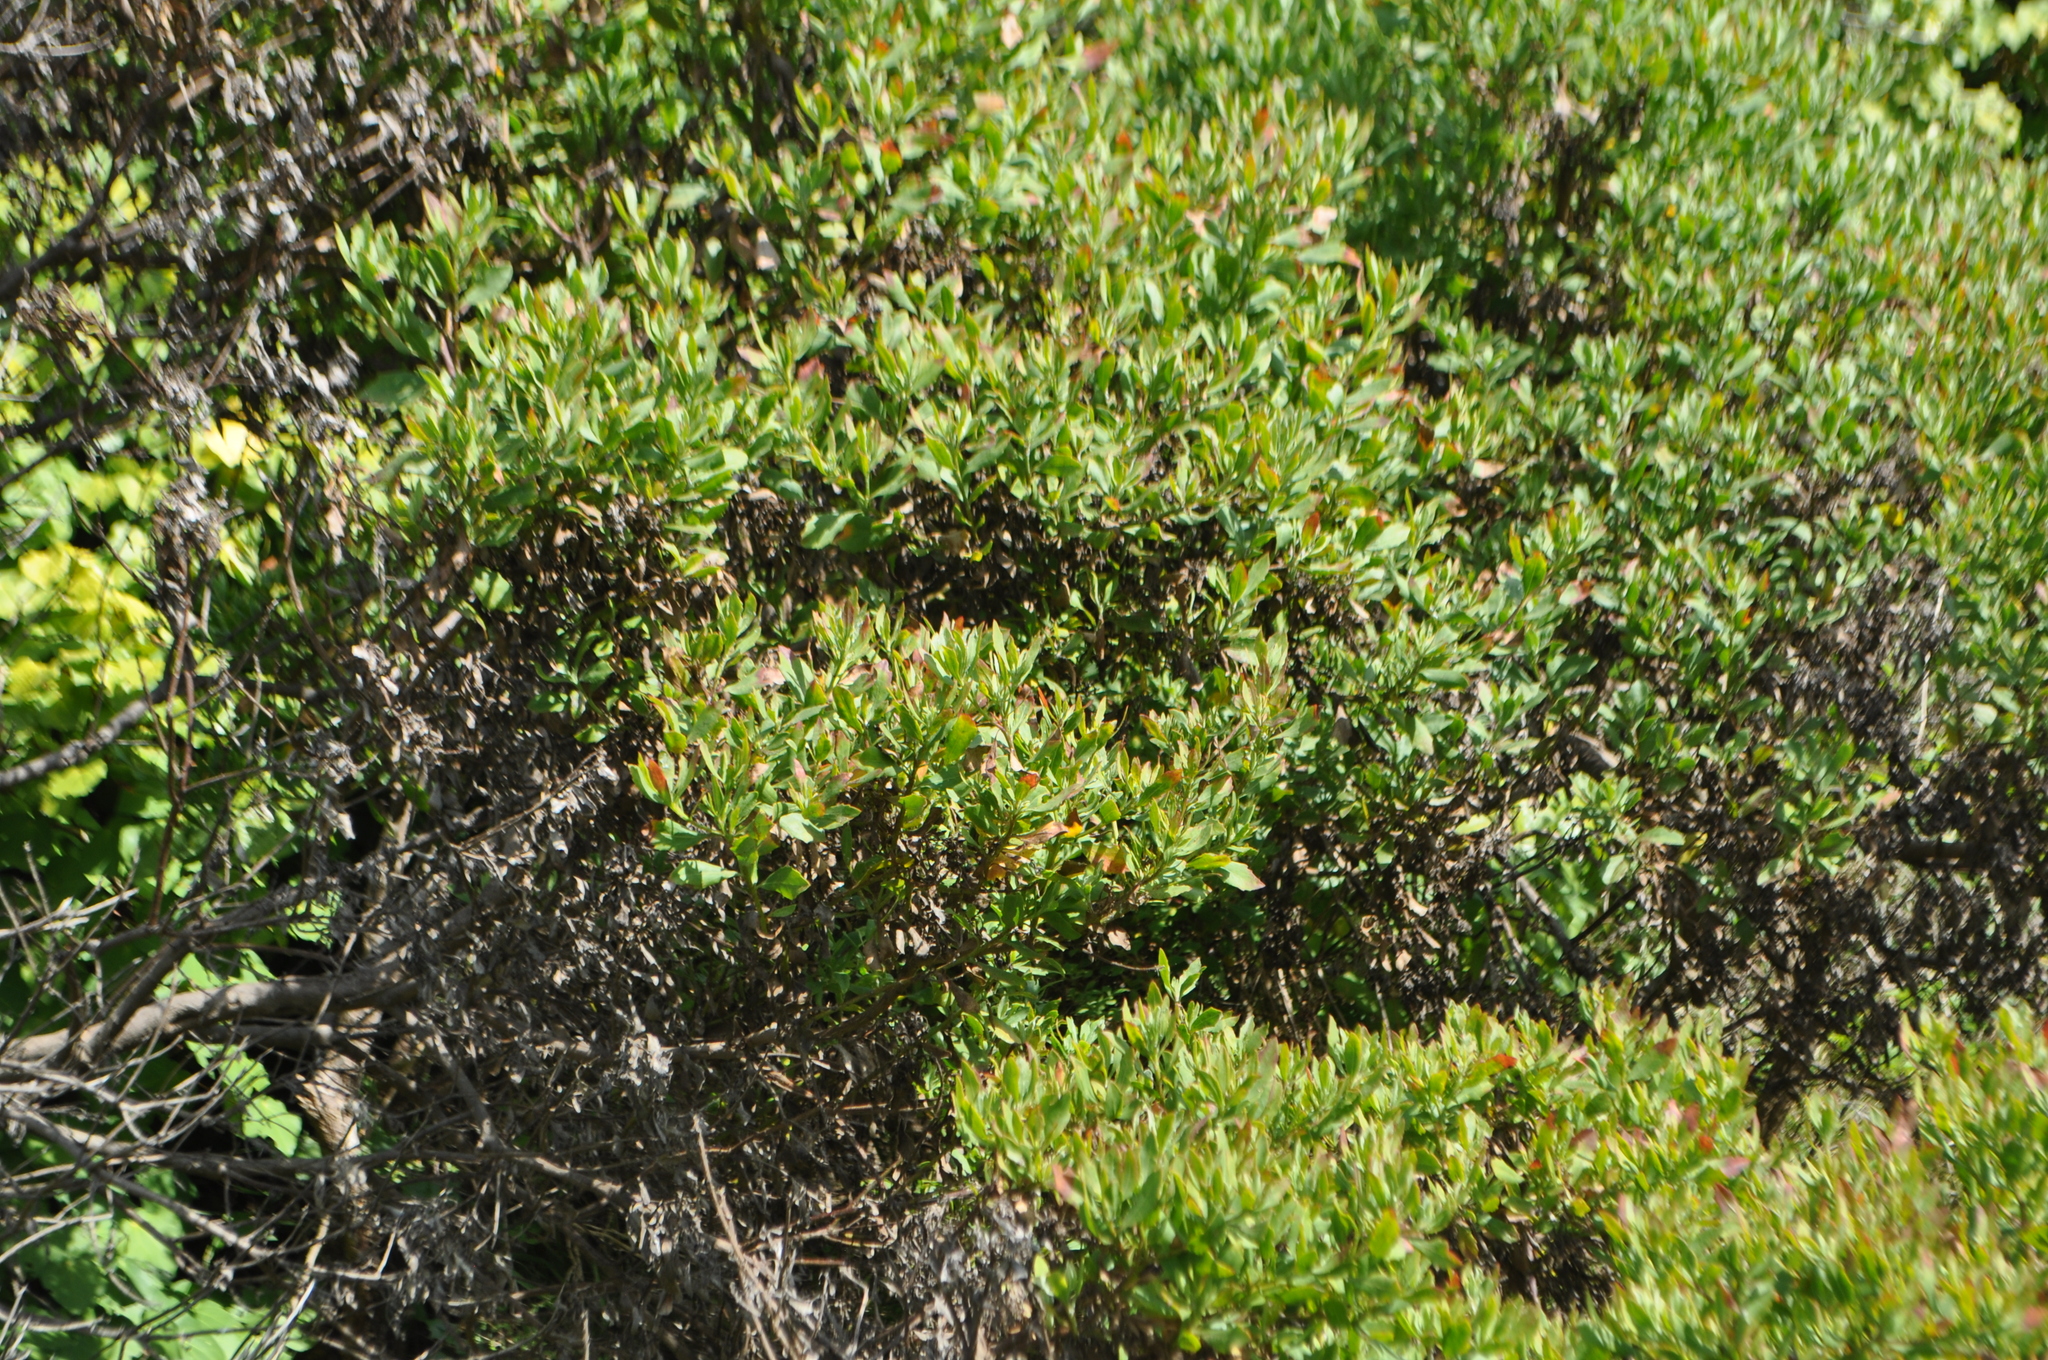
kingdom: Plantae
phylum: Tracheophyta
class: Magnoliopsida
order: Asterales
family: Asteraceae
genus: Osteospermum
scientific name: Osteospermum moniliferum
